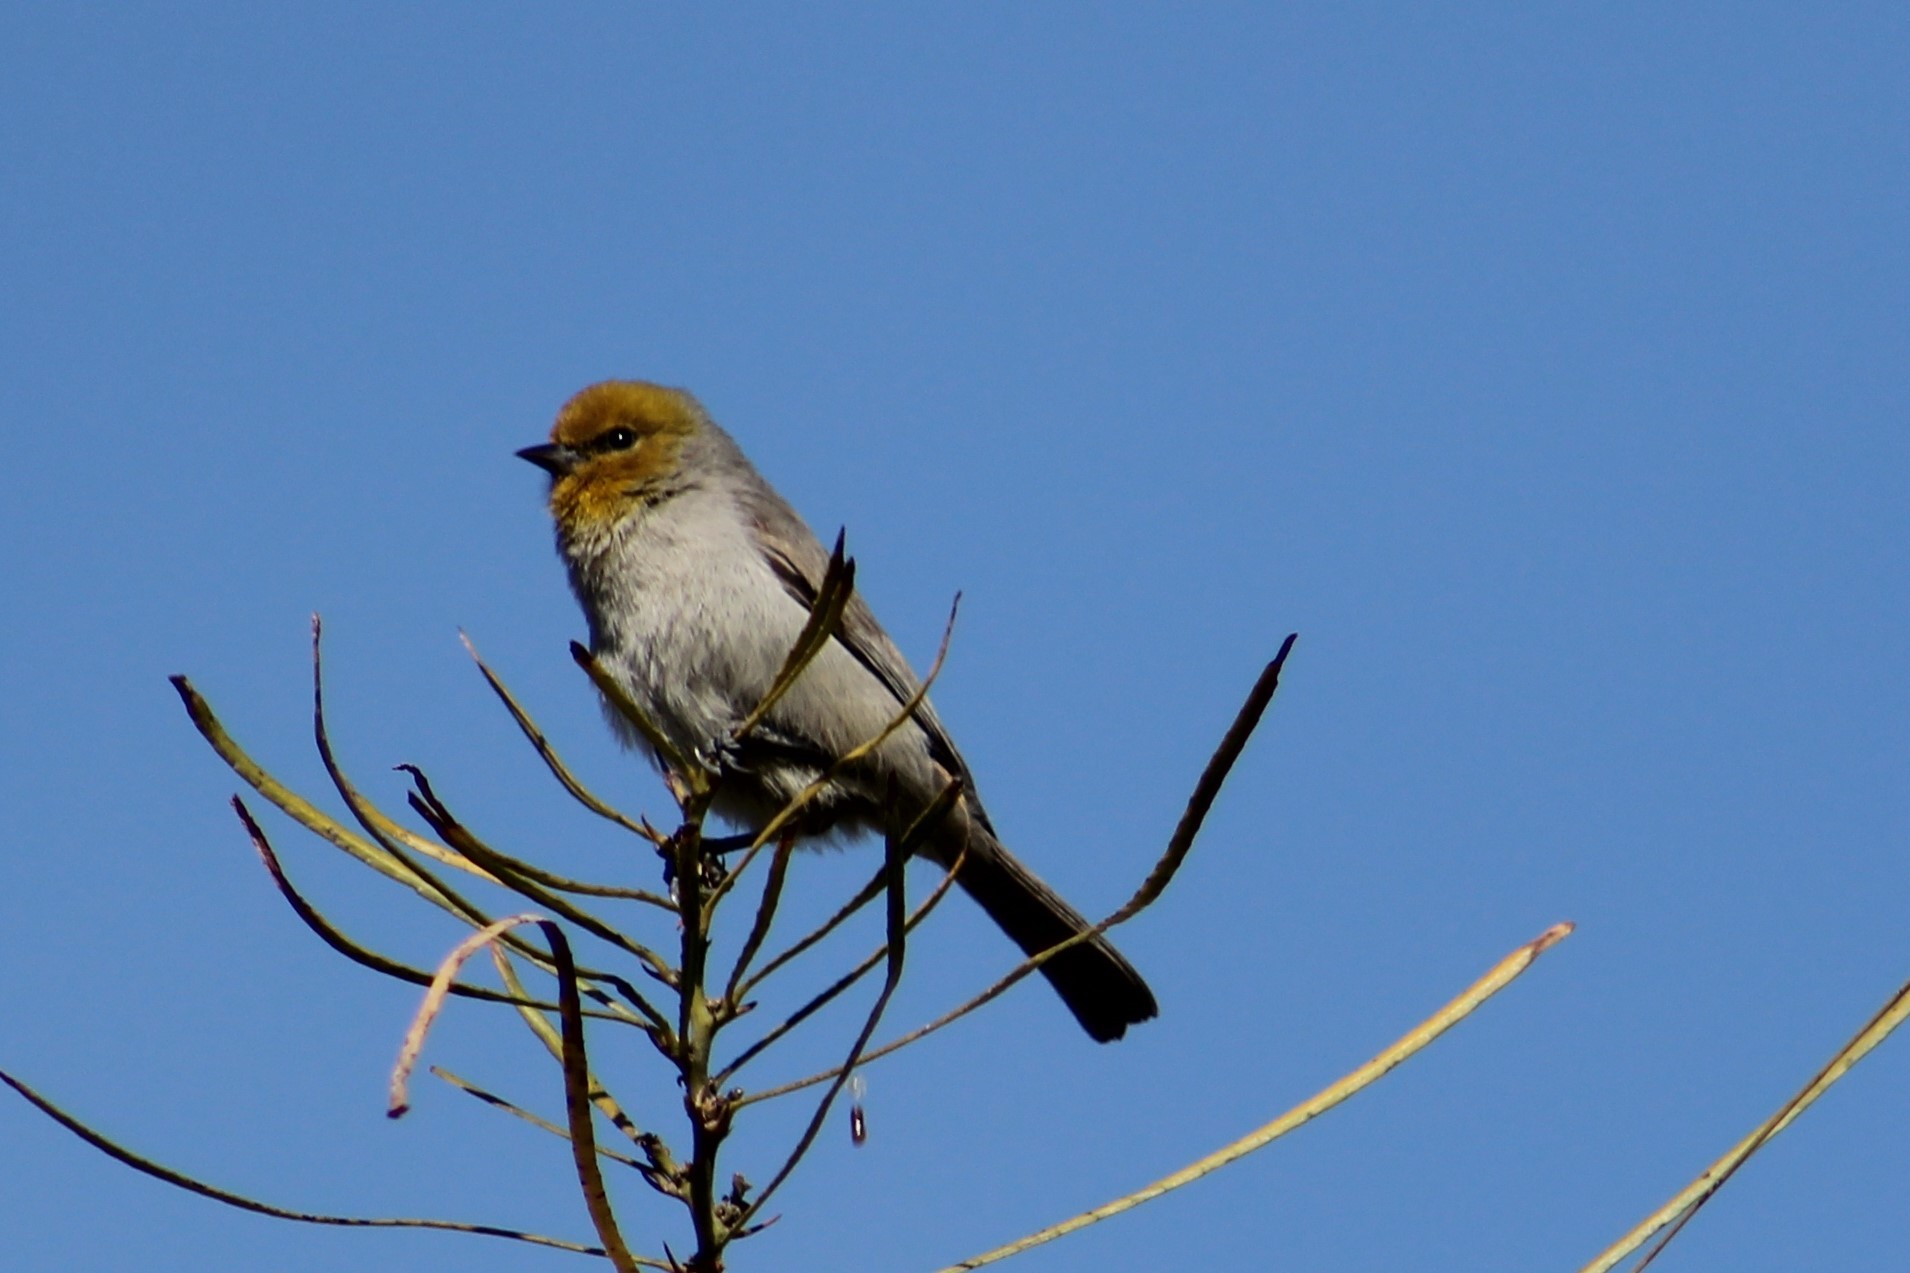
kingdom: Animalia
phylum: Chordata
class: Aves
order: Passeriformes
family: Remizidae
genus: Auriparus
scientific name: Auriparus flaviceps
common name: Verdin
